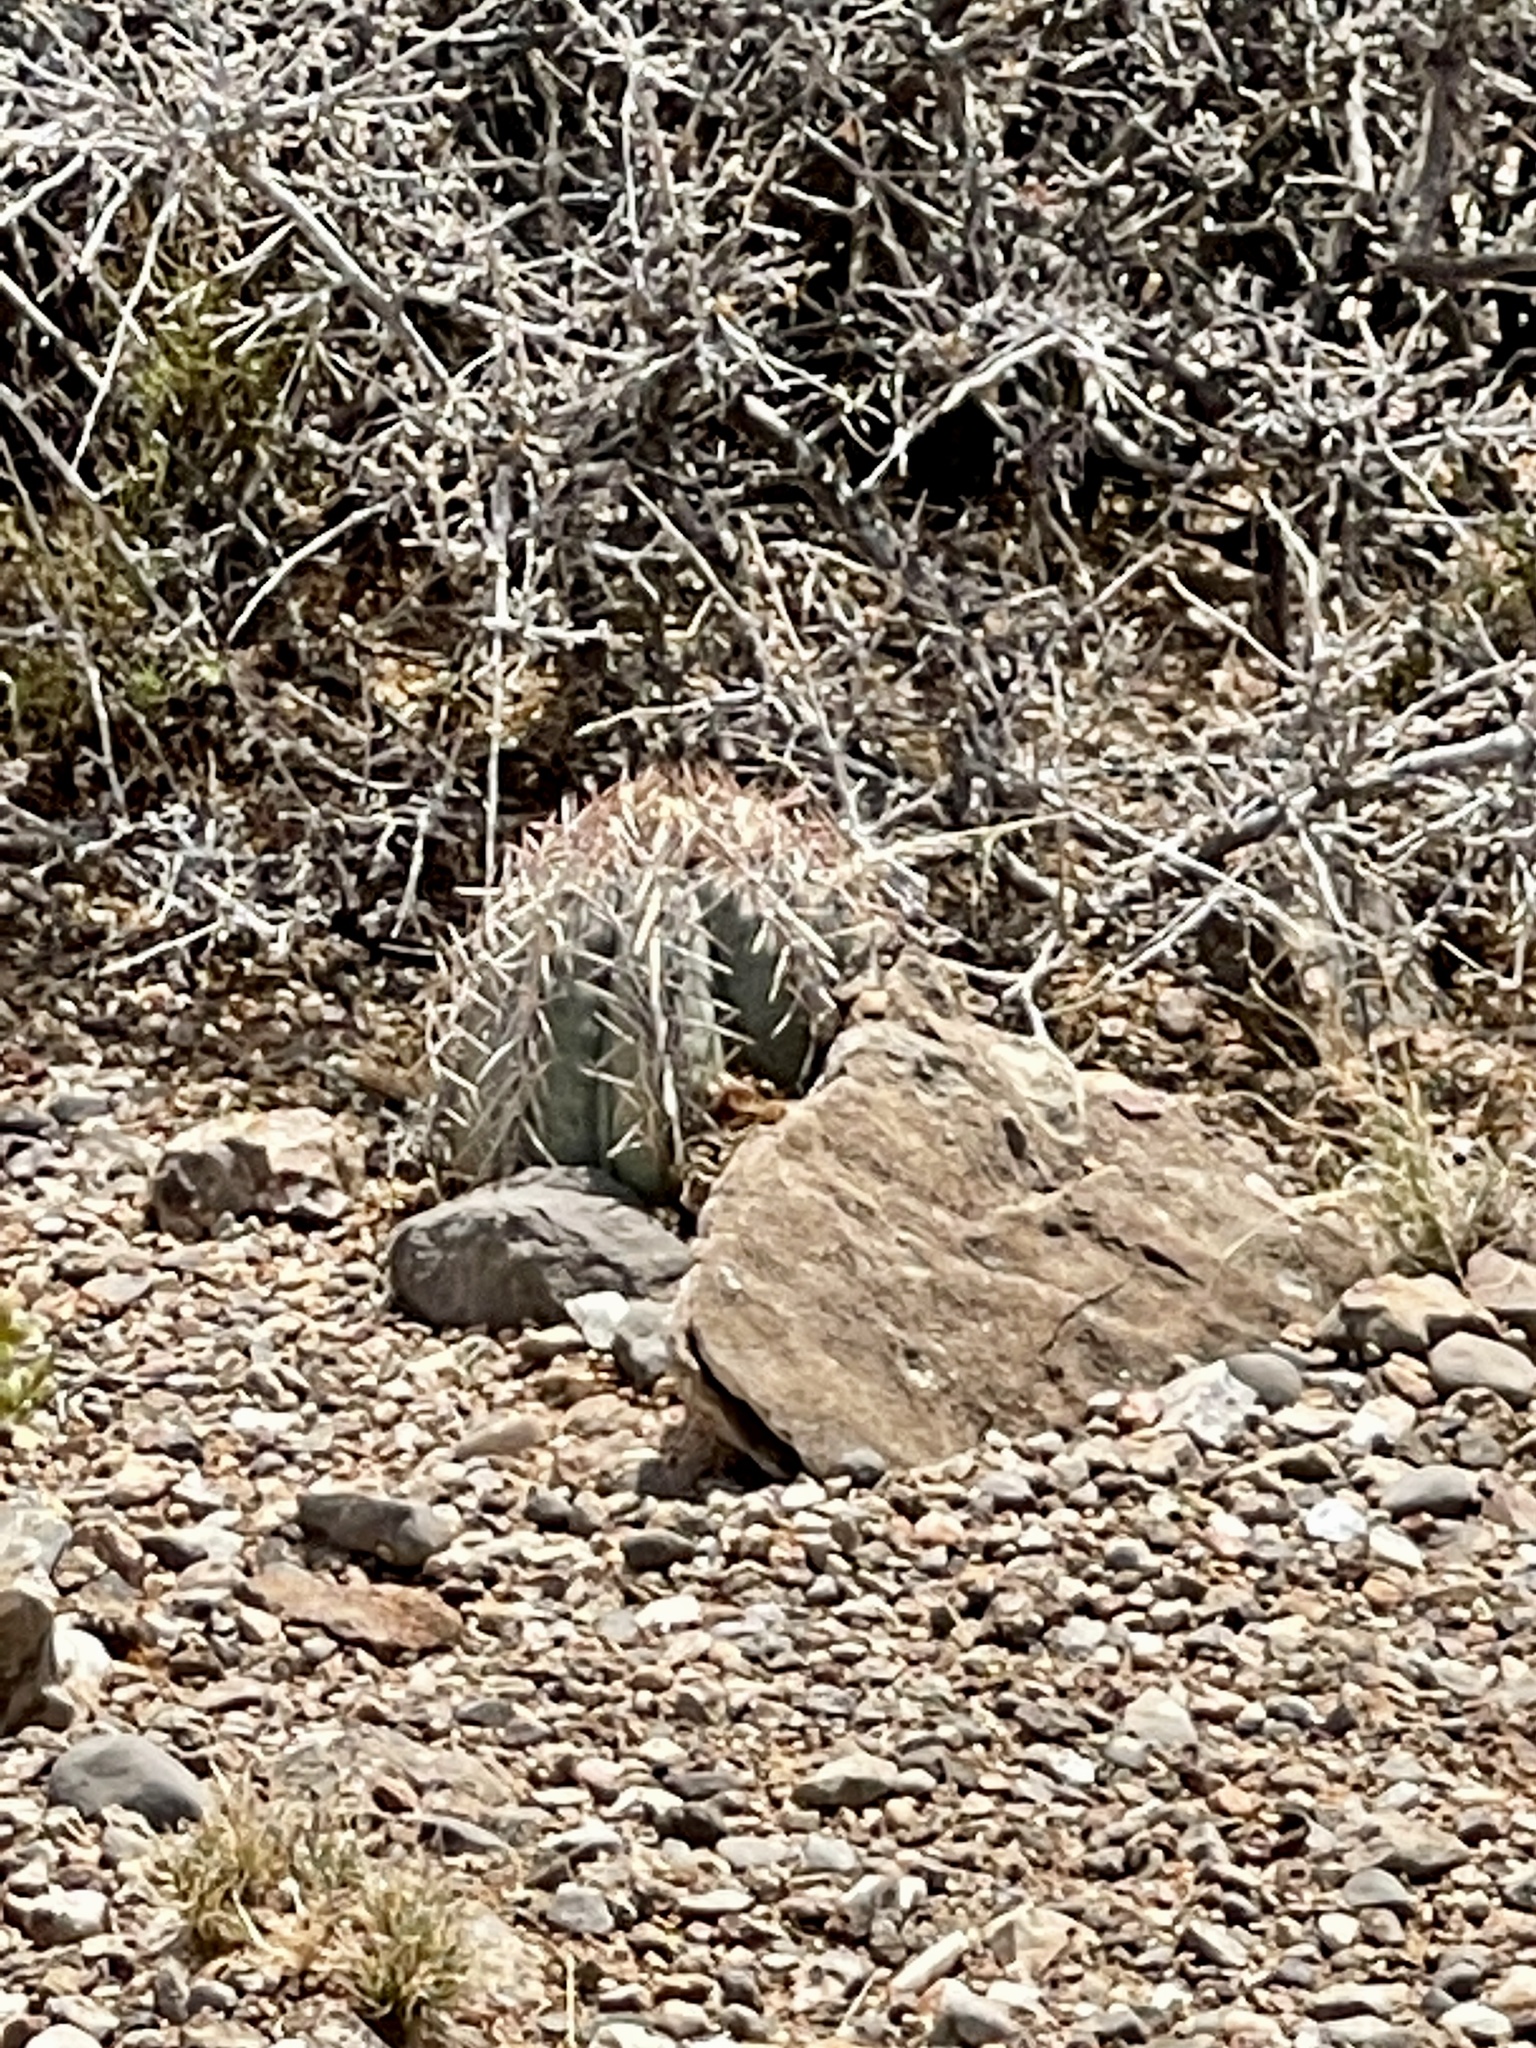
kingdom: Plantae
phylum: Tracheophyta
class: Magnoliopsida
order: Caryophyllales
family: Cactaceae
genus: Echinocactus
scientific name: Echinocactus horizonthalonius
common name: Devilshead
